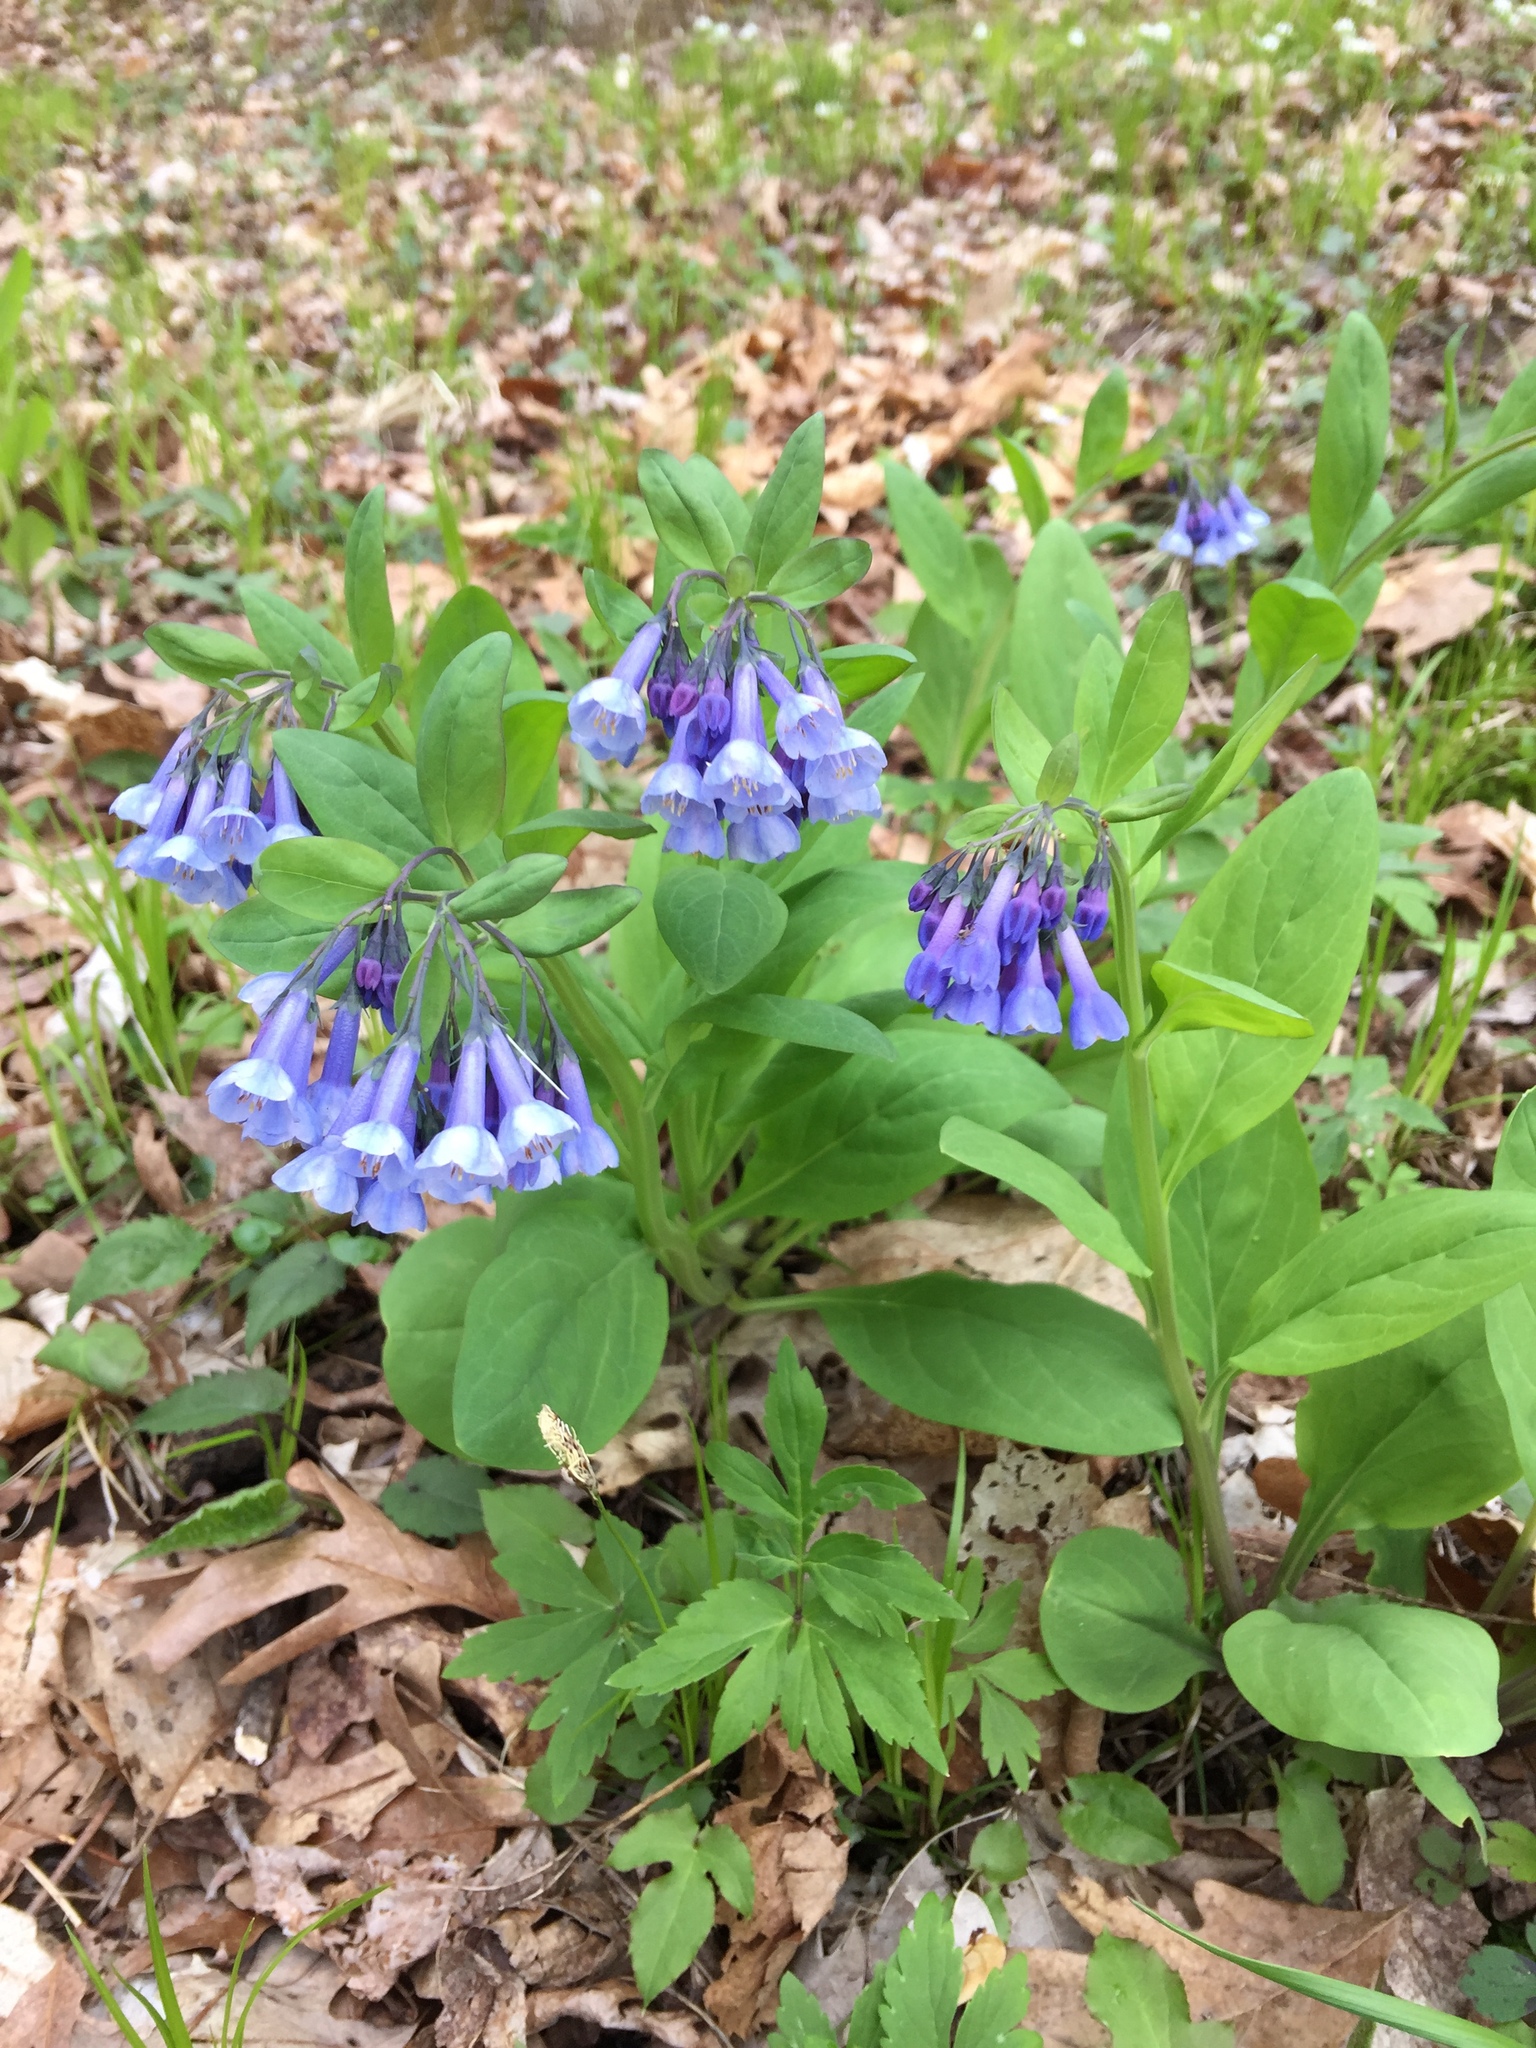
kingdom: Plantae
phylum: Tracheophyta
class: Magnoliopsida
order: Boraginales
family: Boraginaceae
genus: Mertensia
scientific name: Mertensia virginica
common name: Virginia bluebells
